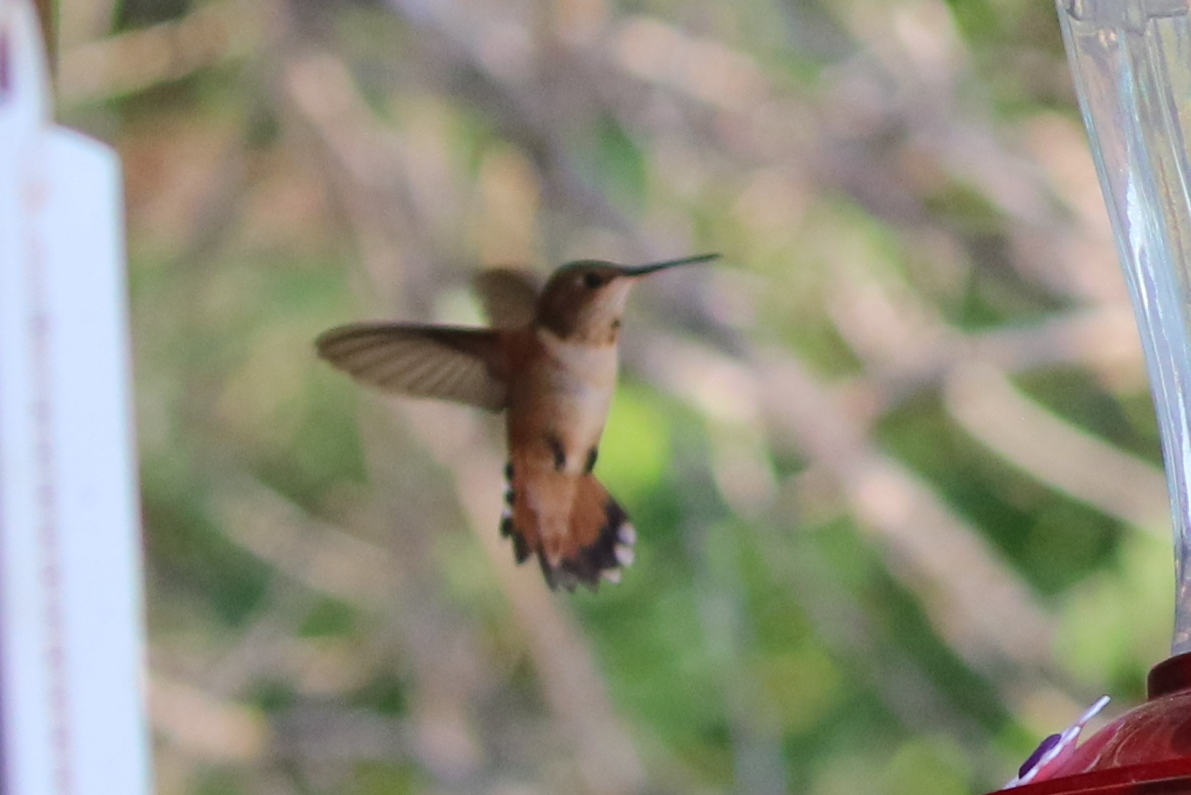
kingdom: Animalia
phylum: Chordata
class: Aves
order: Apodiformes
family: Trochilidae
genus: Selasphorus
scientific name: Selasphorus rufus
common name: Rufous hummingbird
